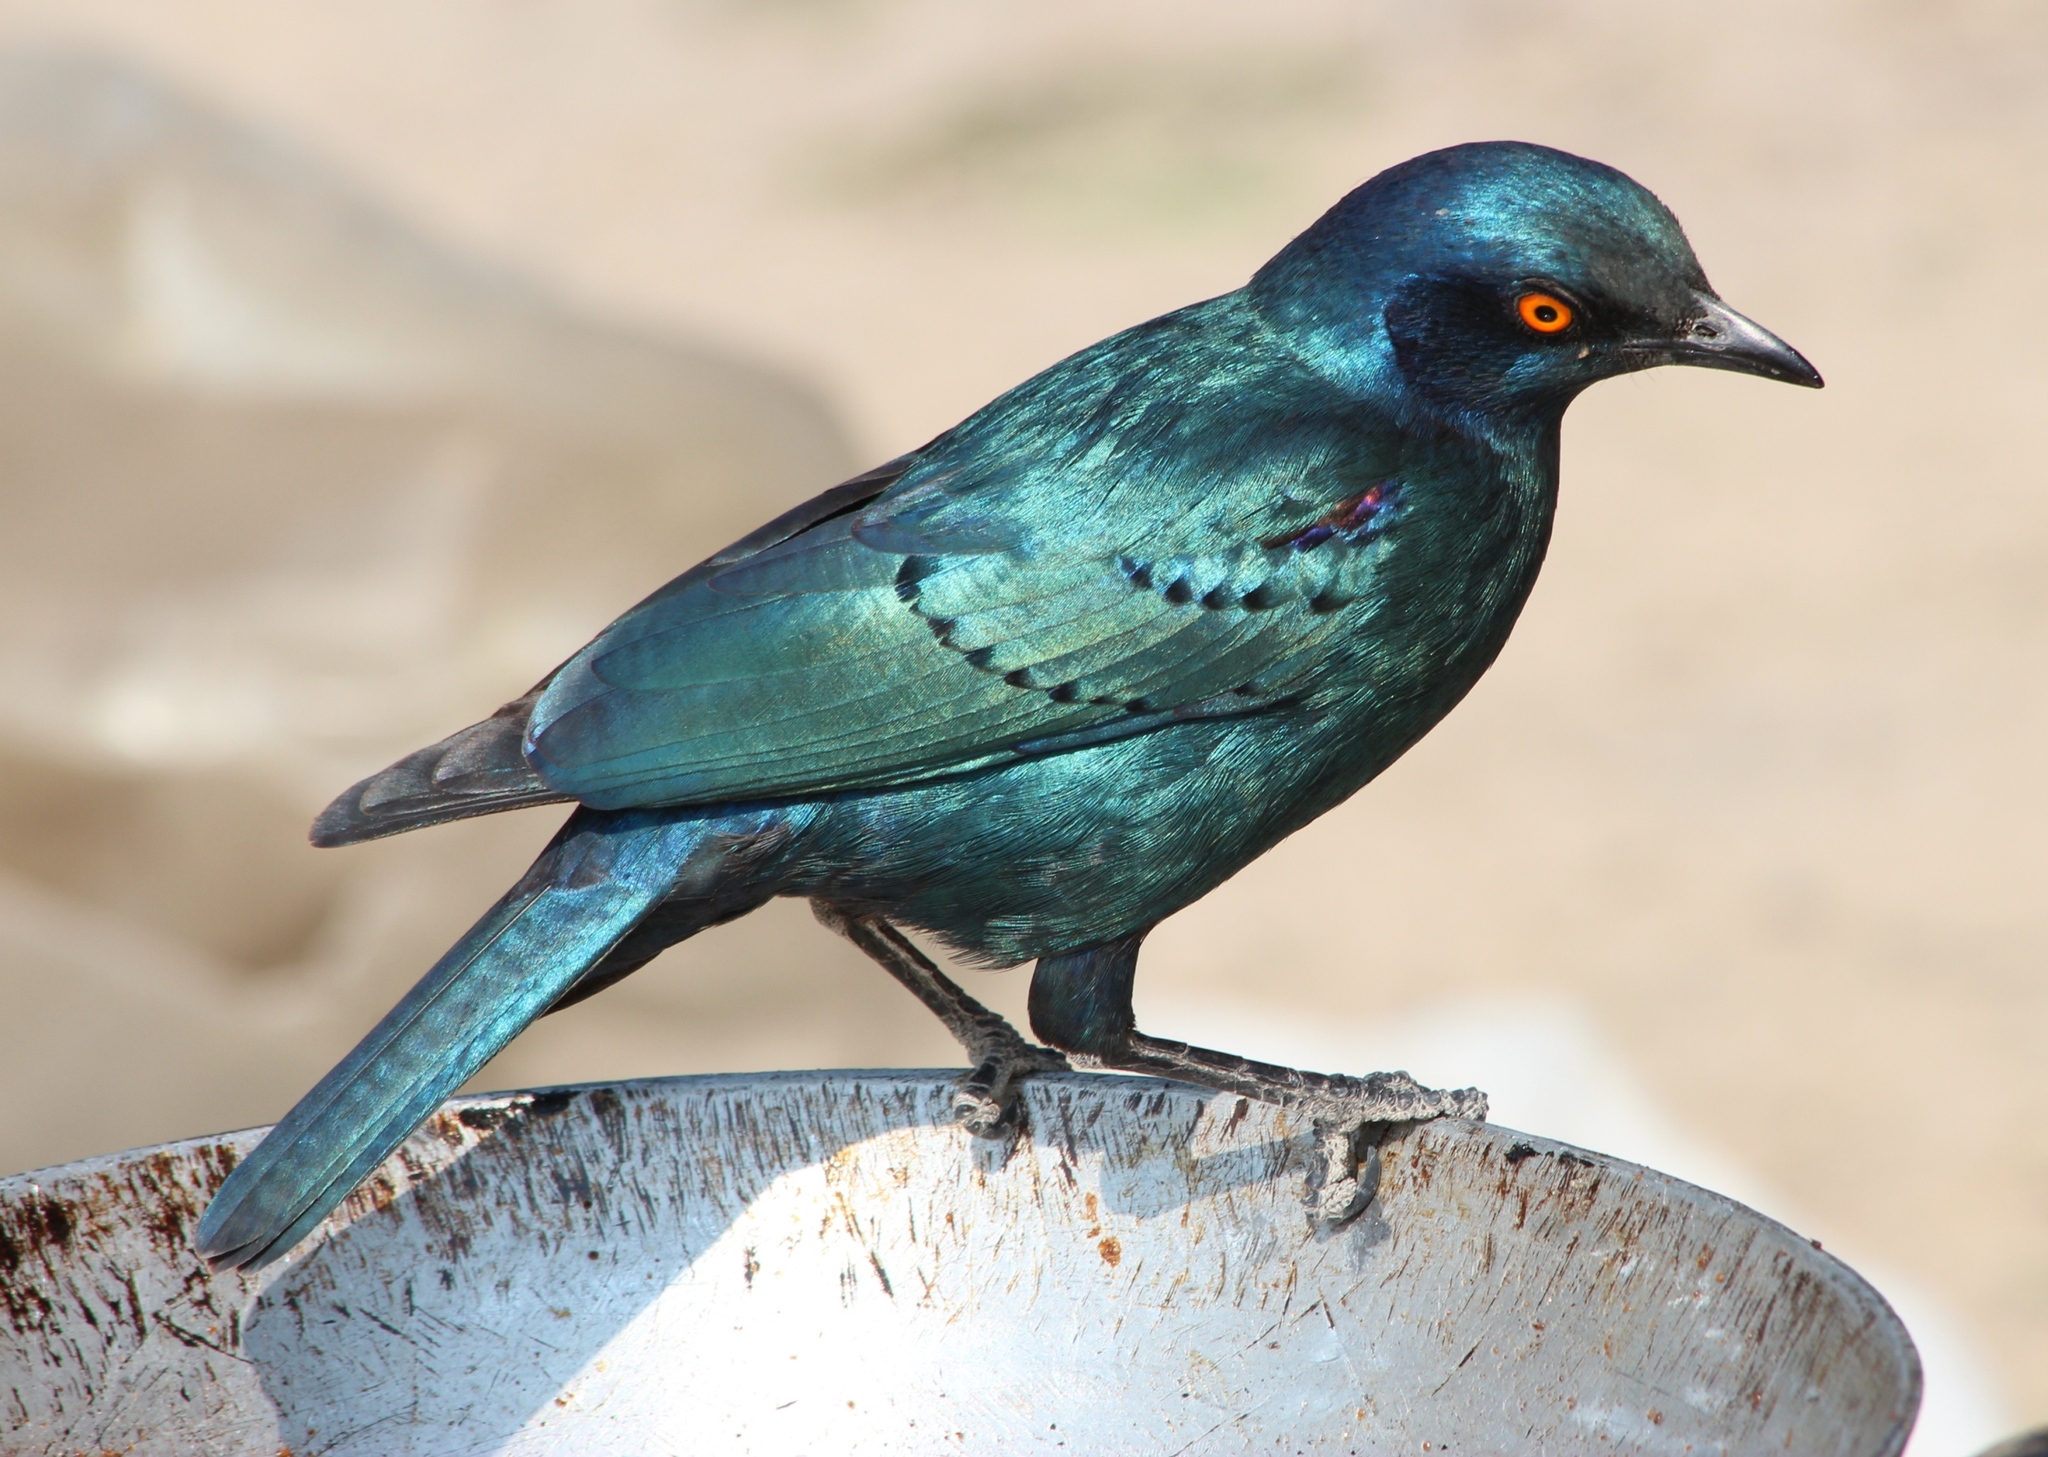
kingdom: Animalia
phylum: Chordata
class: Aves
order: Passeriformes
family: Sturnidae
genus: Lamprotornis
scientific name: Lamprotornis nitens
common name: Cape starling
